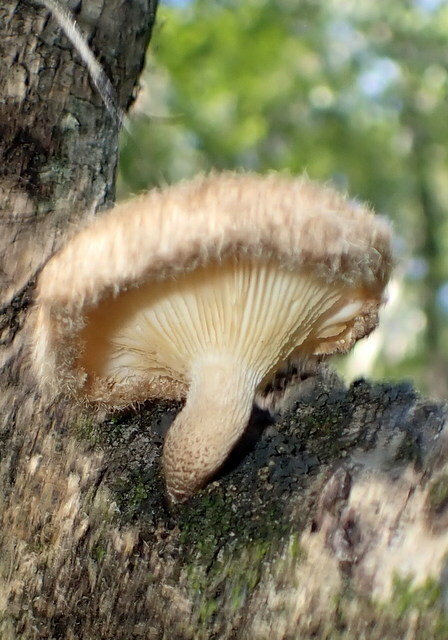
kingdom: Fungi
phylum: Basidiomycota
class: Agaricomycetes
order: Polyporales
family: Polyporaceae
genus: Lentinus
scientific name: Lentinus crinitus
